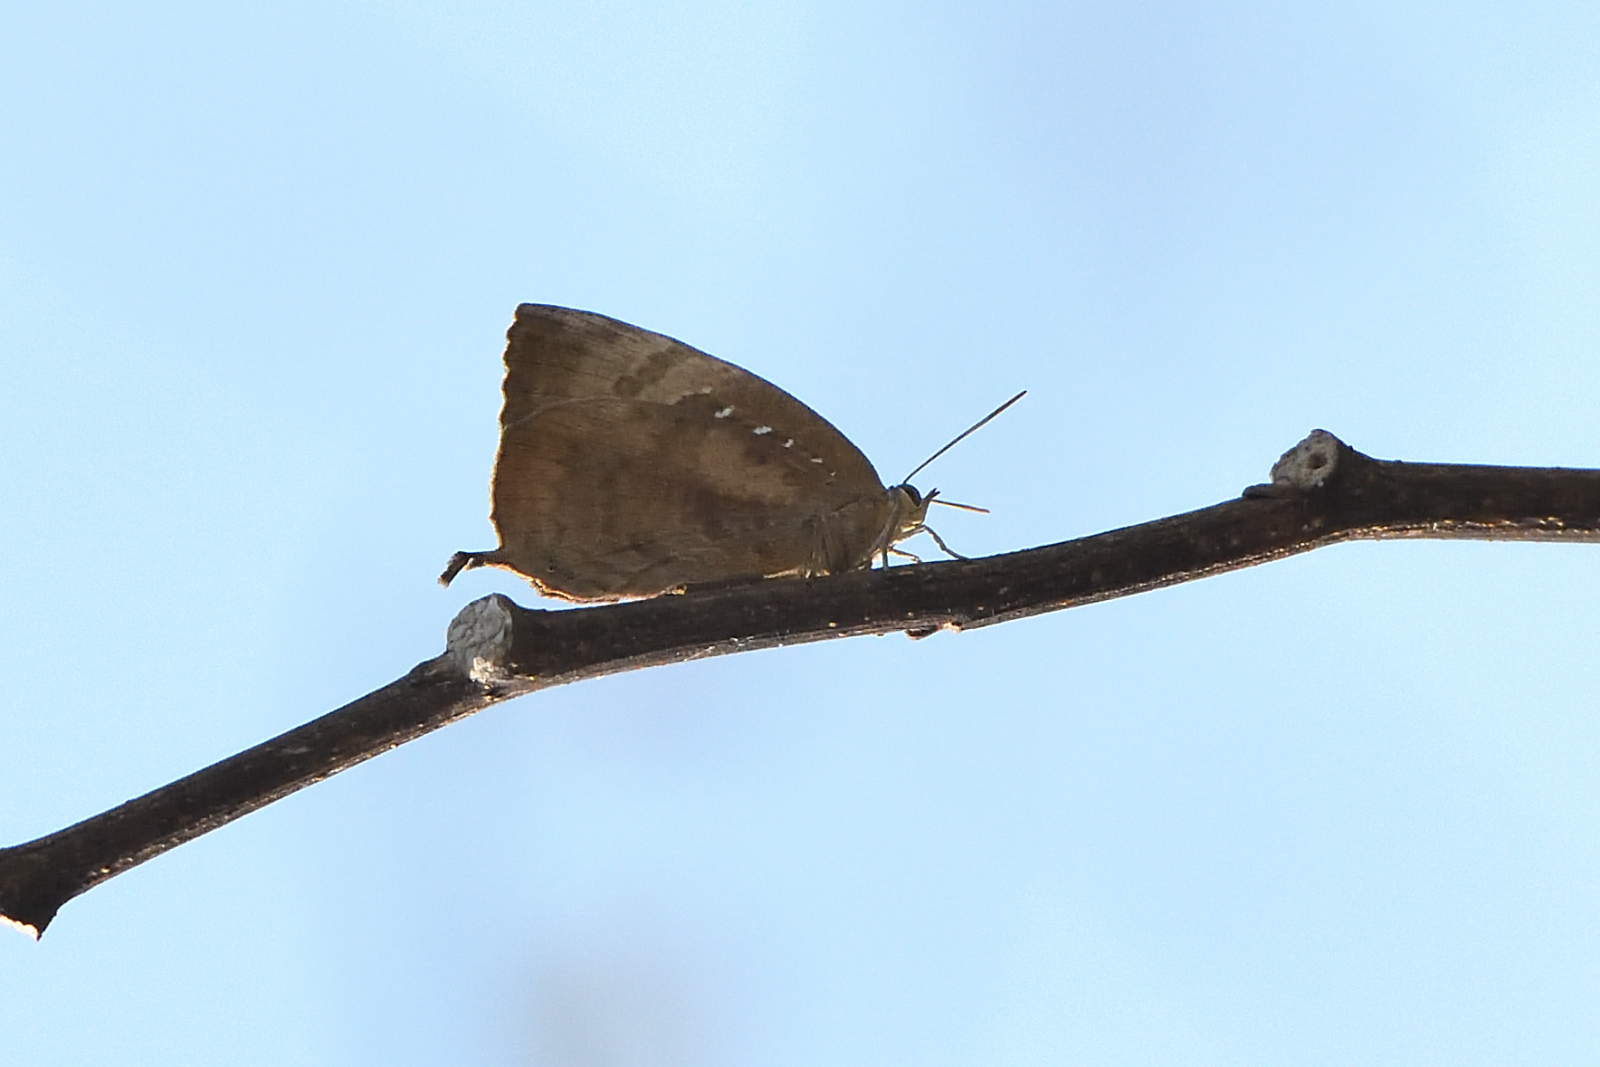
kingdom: Animalia
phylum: Arthropoda
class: Insecta
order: Lepidoptera
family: Lycaenidae
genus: Arhopala
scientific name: Arhopala centaurus
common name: Dull oak-blue
